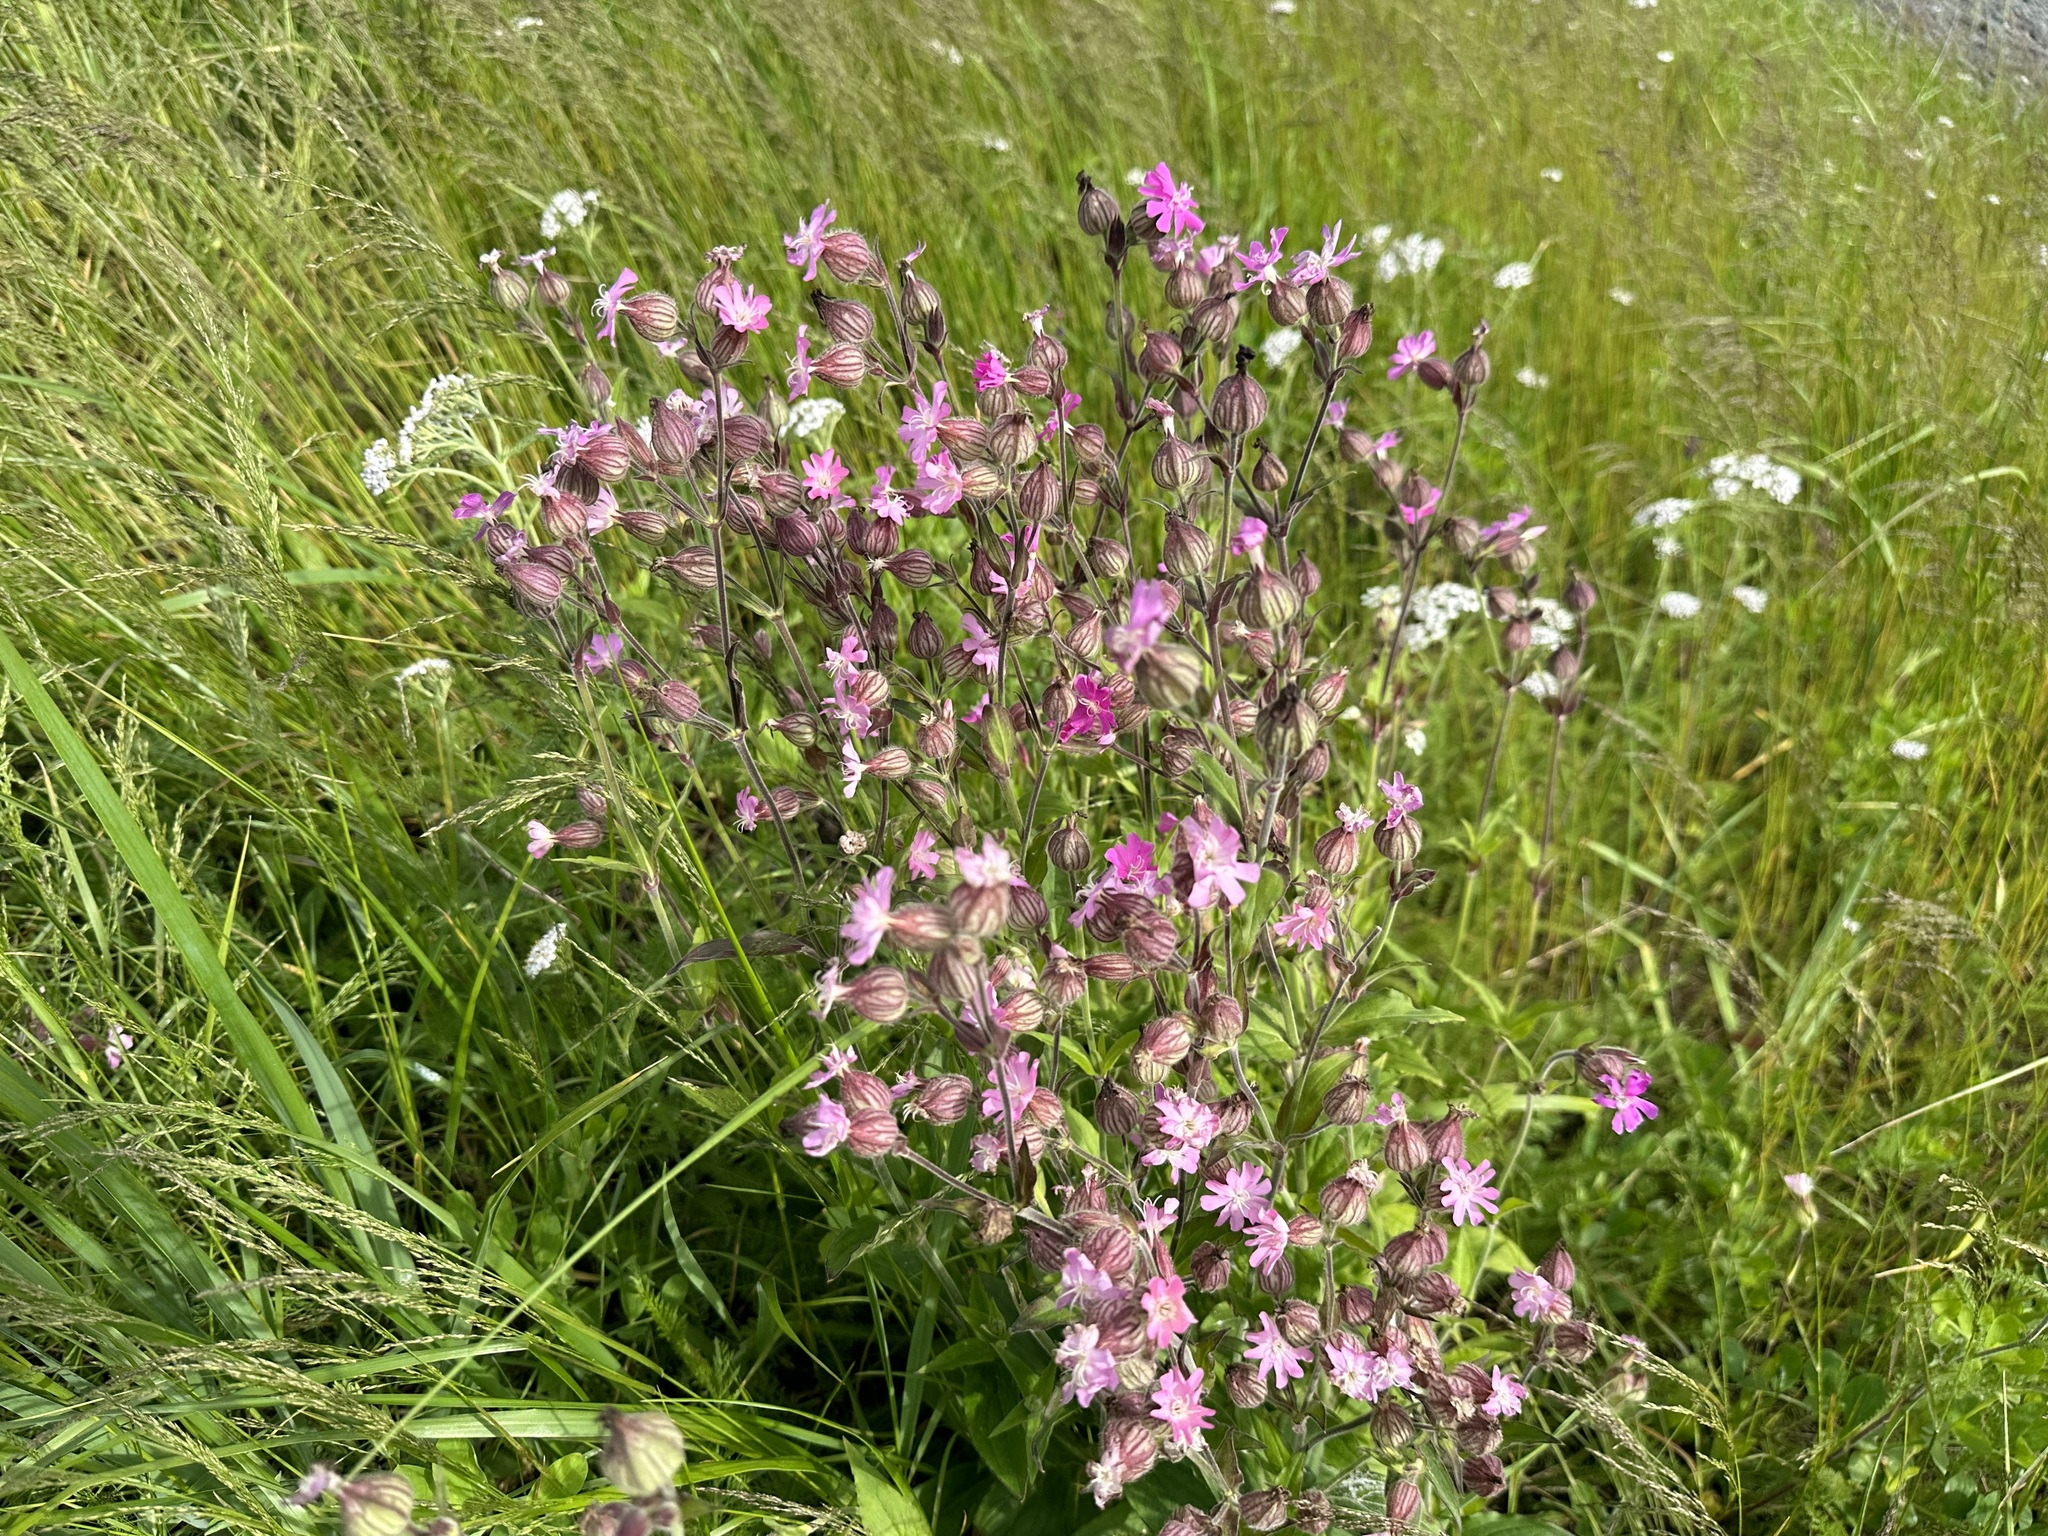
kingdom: Plantae
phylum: Tracheophyta
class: Magnoliopsida
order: Caryophyllales
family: Caryophyllaceae
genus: Silene
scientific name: Silene dioica
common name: Red campion
